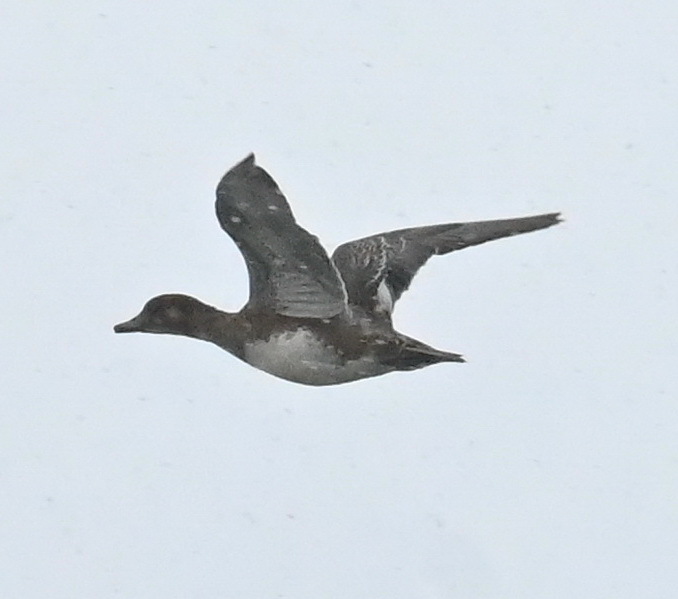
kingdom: Animalia
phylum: Chordata
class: Aves
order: Anseriformes
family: Anatidae
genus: Mareca
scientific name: Mareca penelope
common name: Eurasian wigeon
